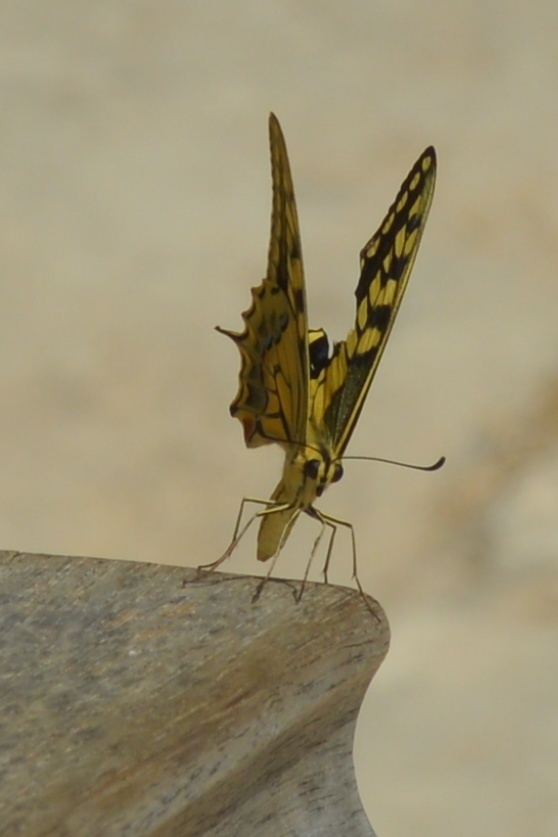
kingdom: Animalia
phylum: Arthropoda
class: Insecta
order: Lepidoptera
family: Papilionidae
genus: Papilio
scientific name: Papilio machaon
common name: Swallowtail
